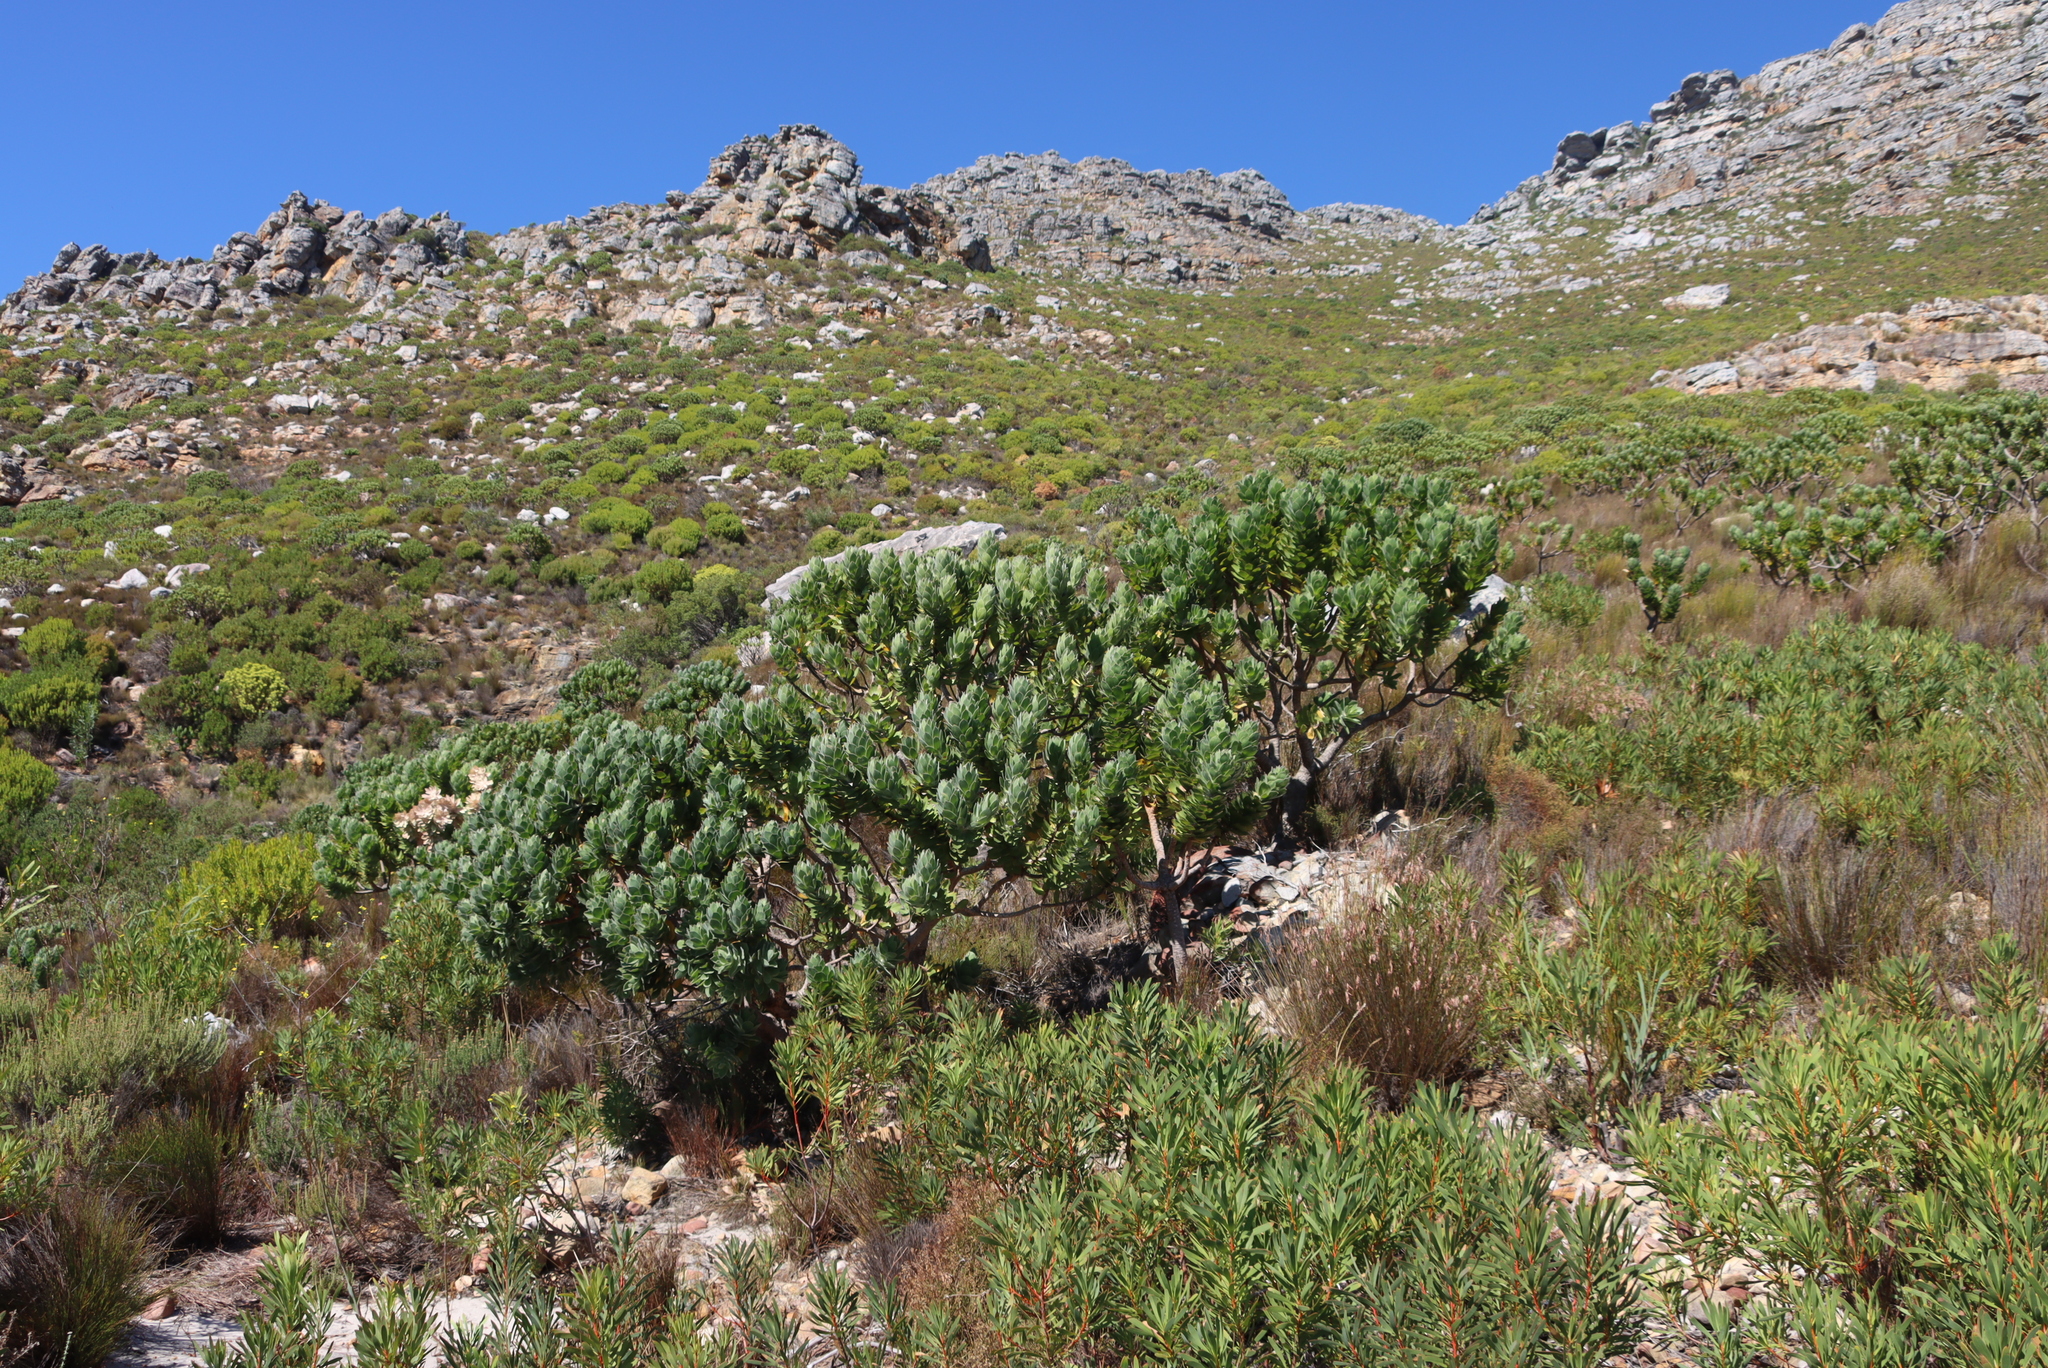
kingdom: Plantae
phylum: Tracheophyta
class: Magnoliopsida
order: Proteales
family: Proteaceae
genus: Leucospermum
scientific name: Leucospermum conocarpodendron
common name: Tree pincushion
